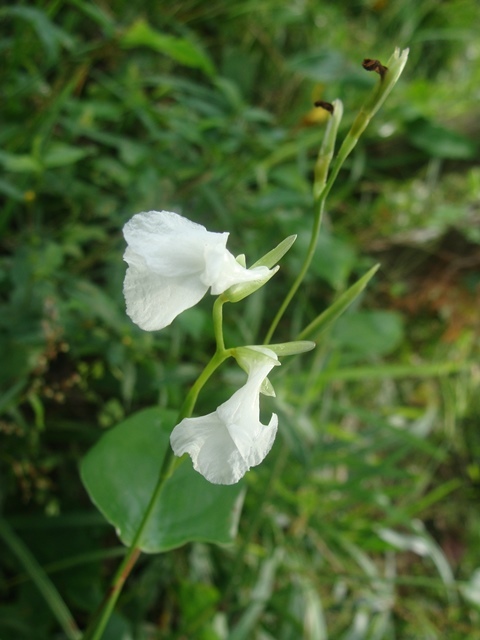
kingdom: Plantae
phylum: Tracheophyta
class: Liliopsida
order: Zingiberales
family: Marantaceae
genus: Maranta
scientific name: Maranta arundinacea
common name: Arrowroot
